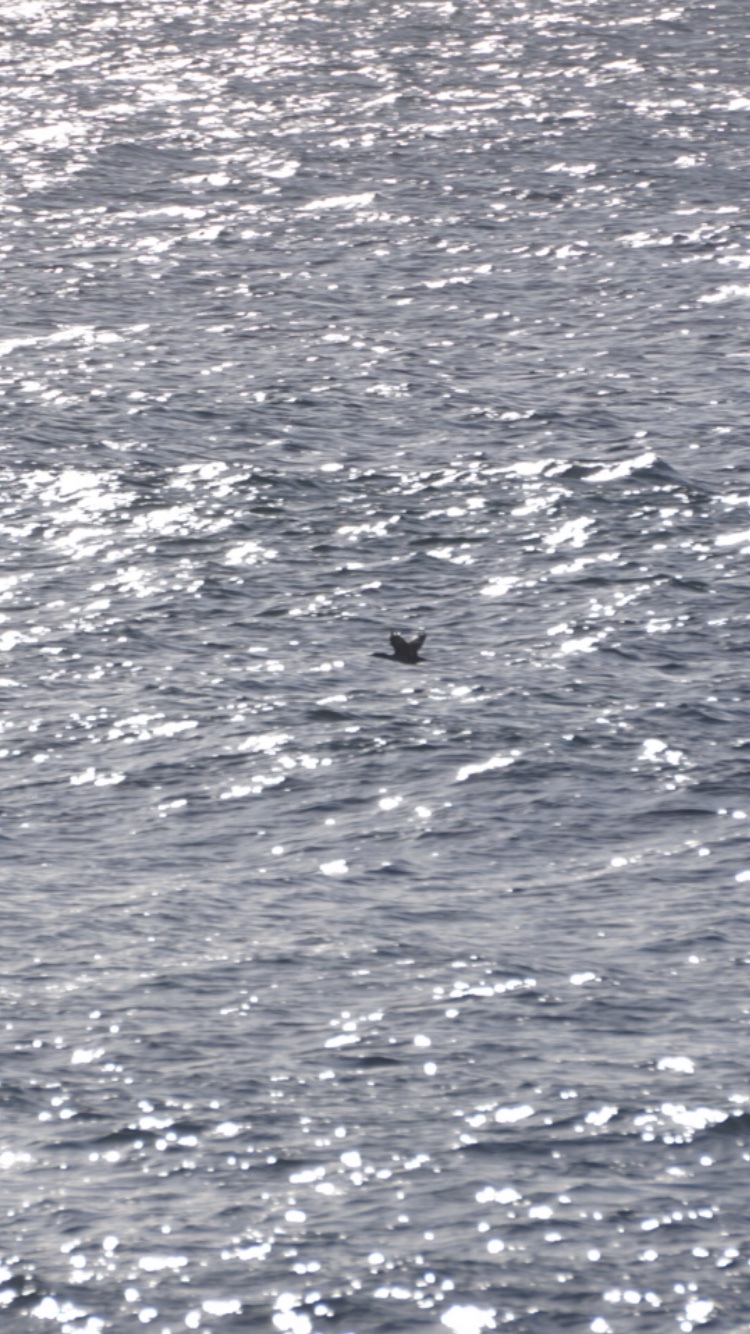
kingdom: Animalia
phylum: Chordata
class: Aves
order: Suliformes
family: Phalacrocoracidae
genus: Phalacrocorax
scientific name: Phalacrocorax featherstoni
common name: Pitt shag
